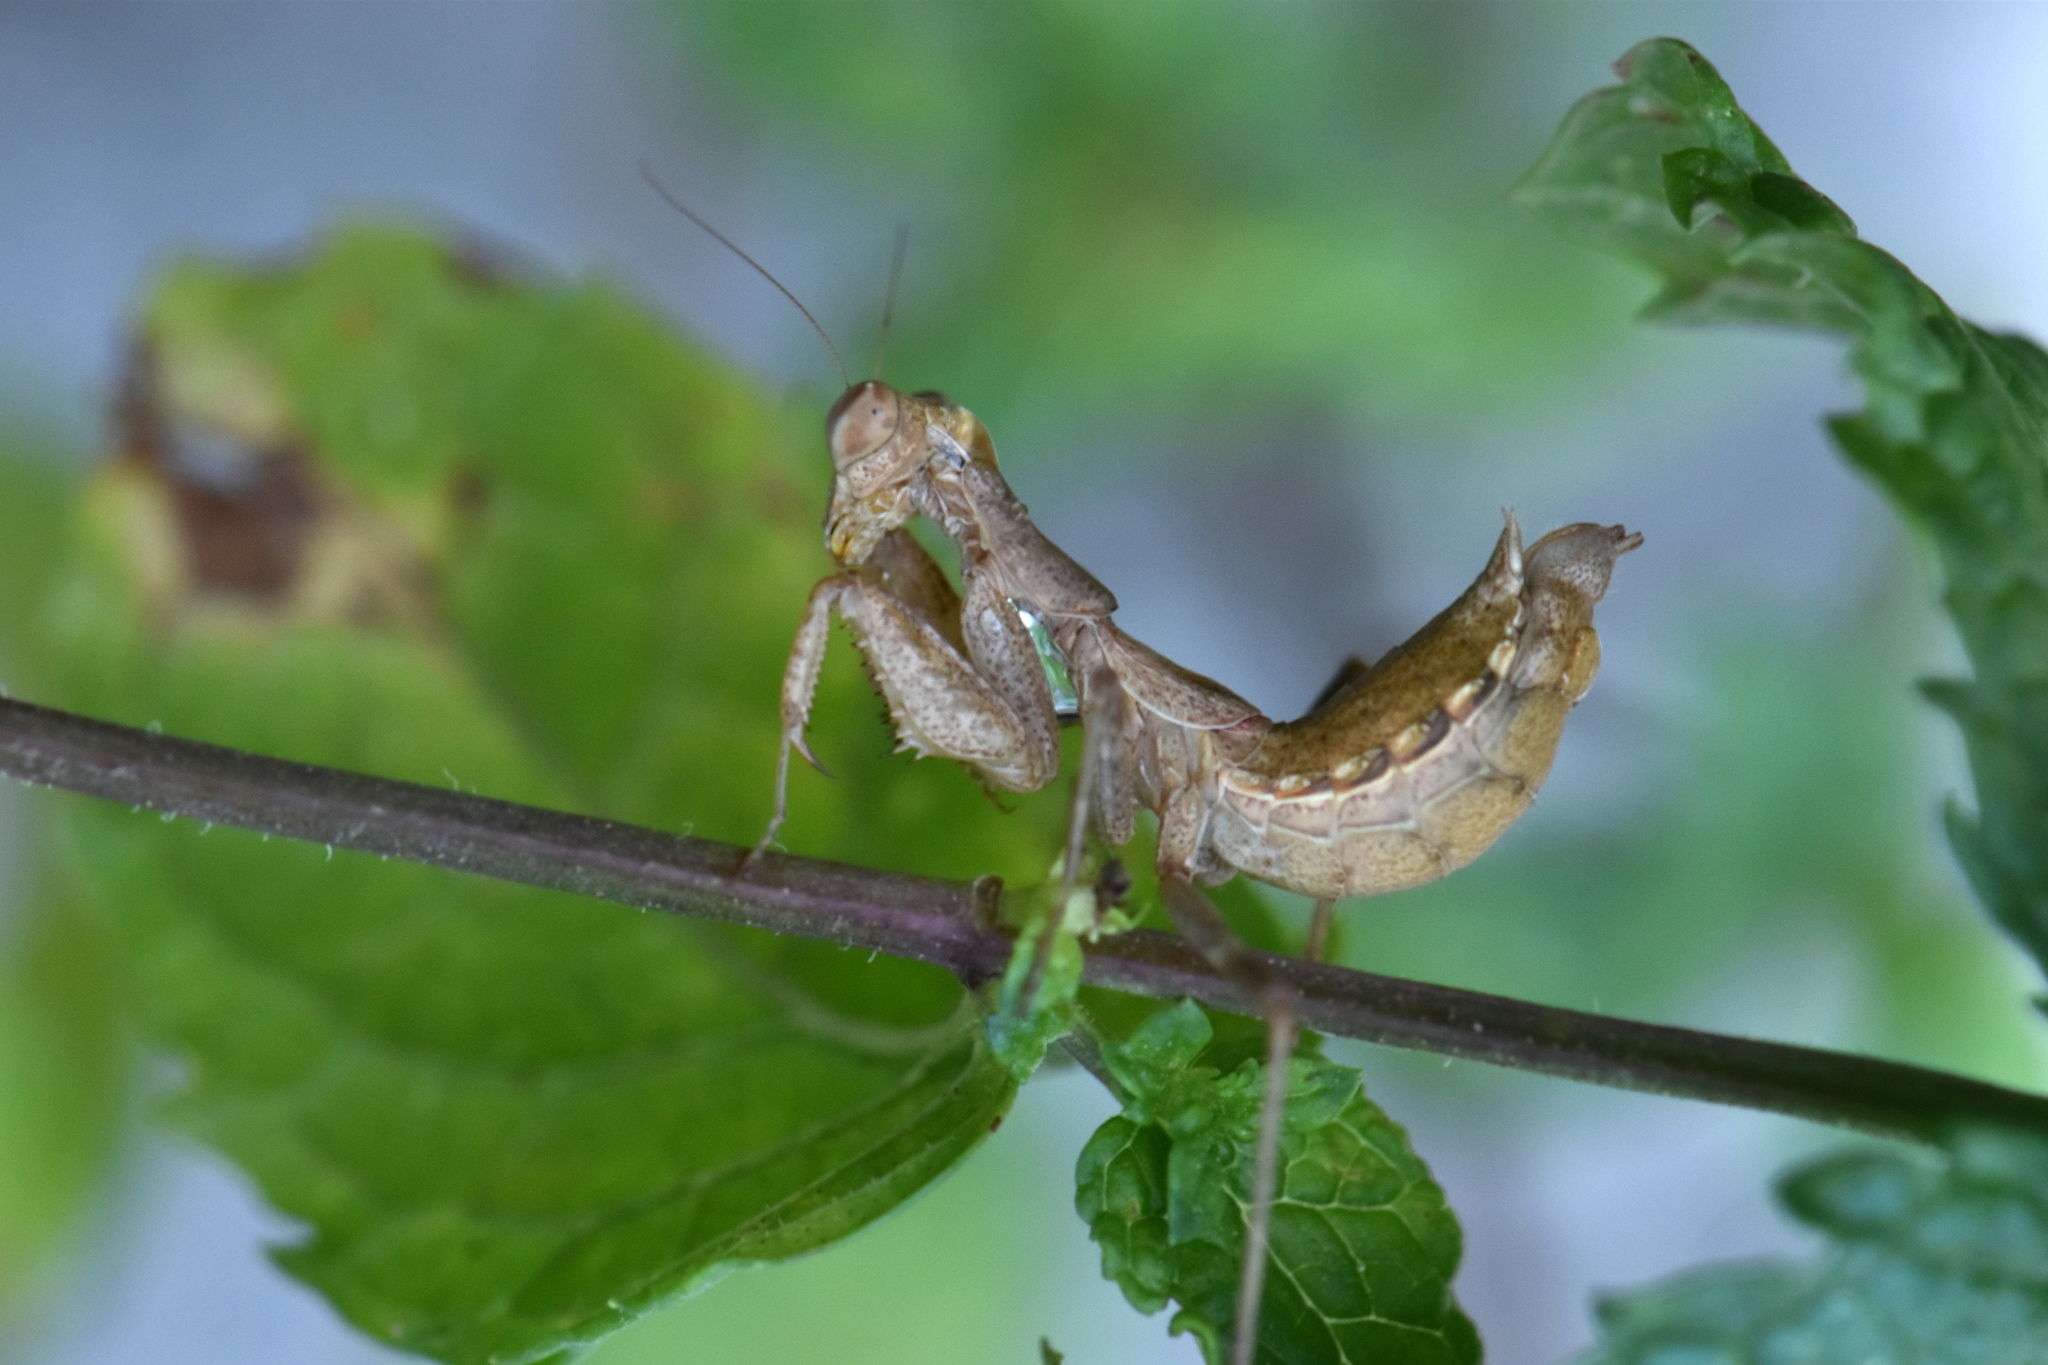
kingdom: Animalia
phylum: Arthropoda
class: Insecta
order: Mantodea
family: Amelidae
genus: Ameles
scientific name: Ameles spallanzania
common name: European dwarf mantis
